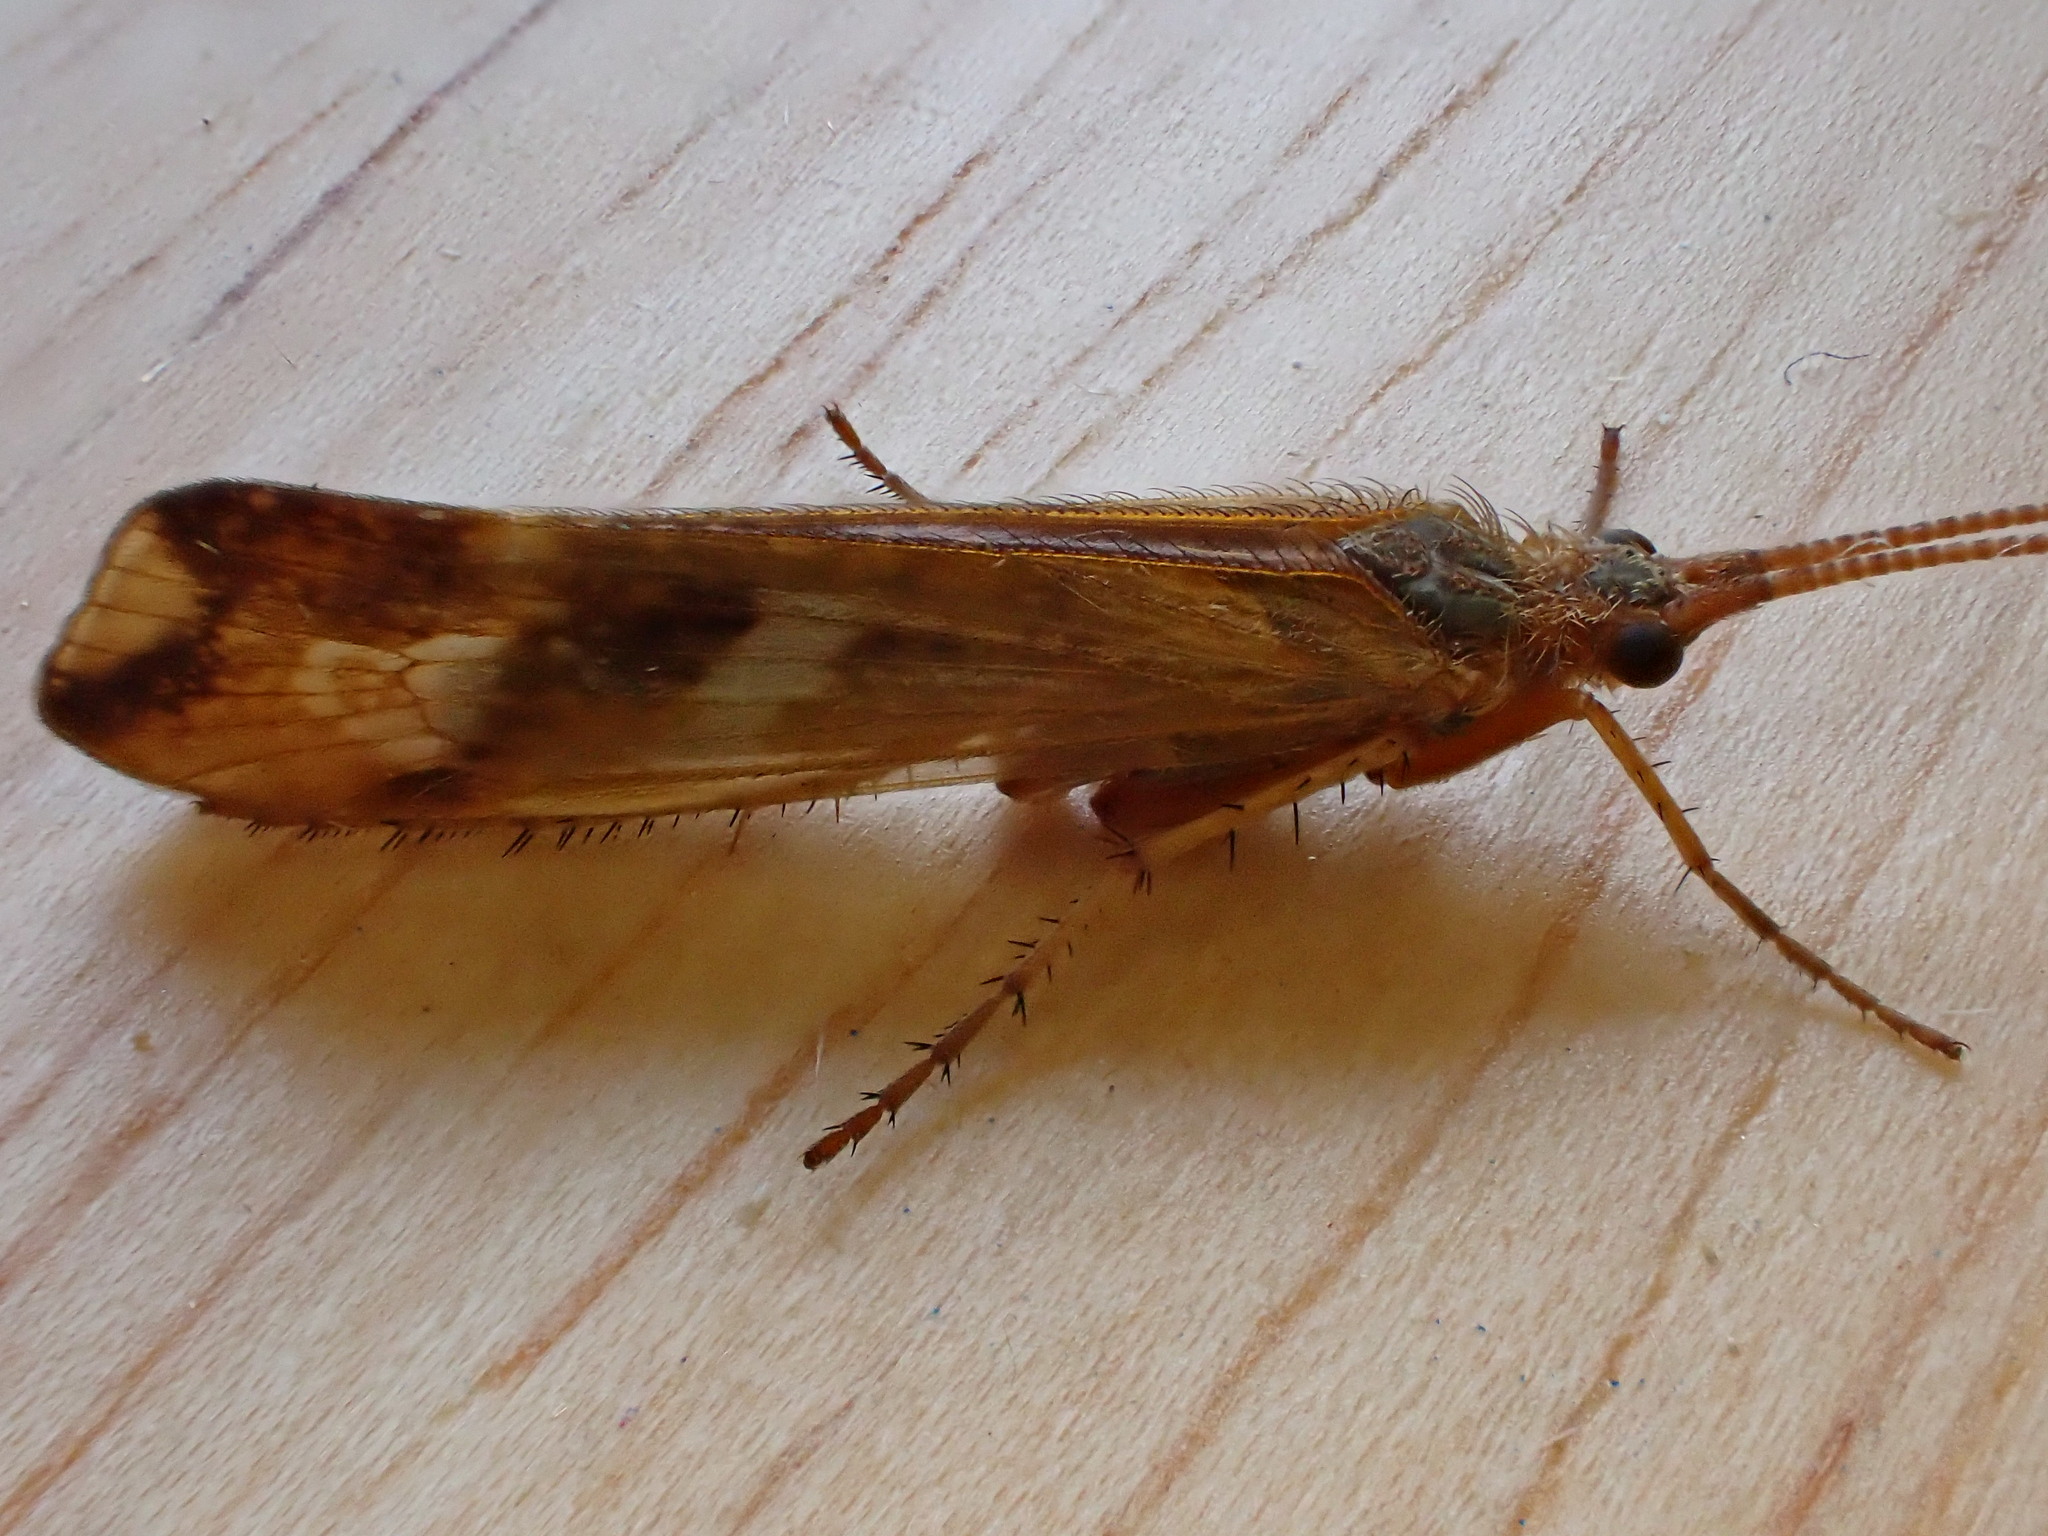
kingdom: Animalia
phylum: Arthropoda
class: Insecta
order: Trichoptera
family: Limnephilidae
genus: Limnephilus
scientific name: Limnephilus lunatus
